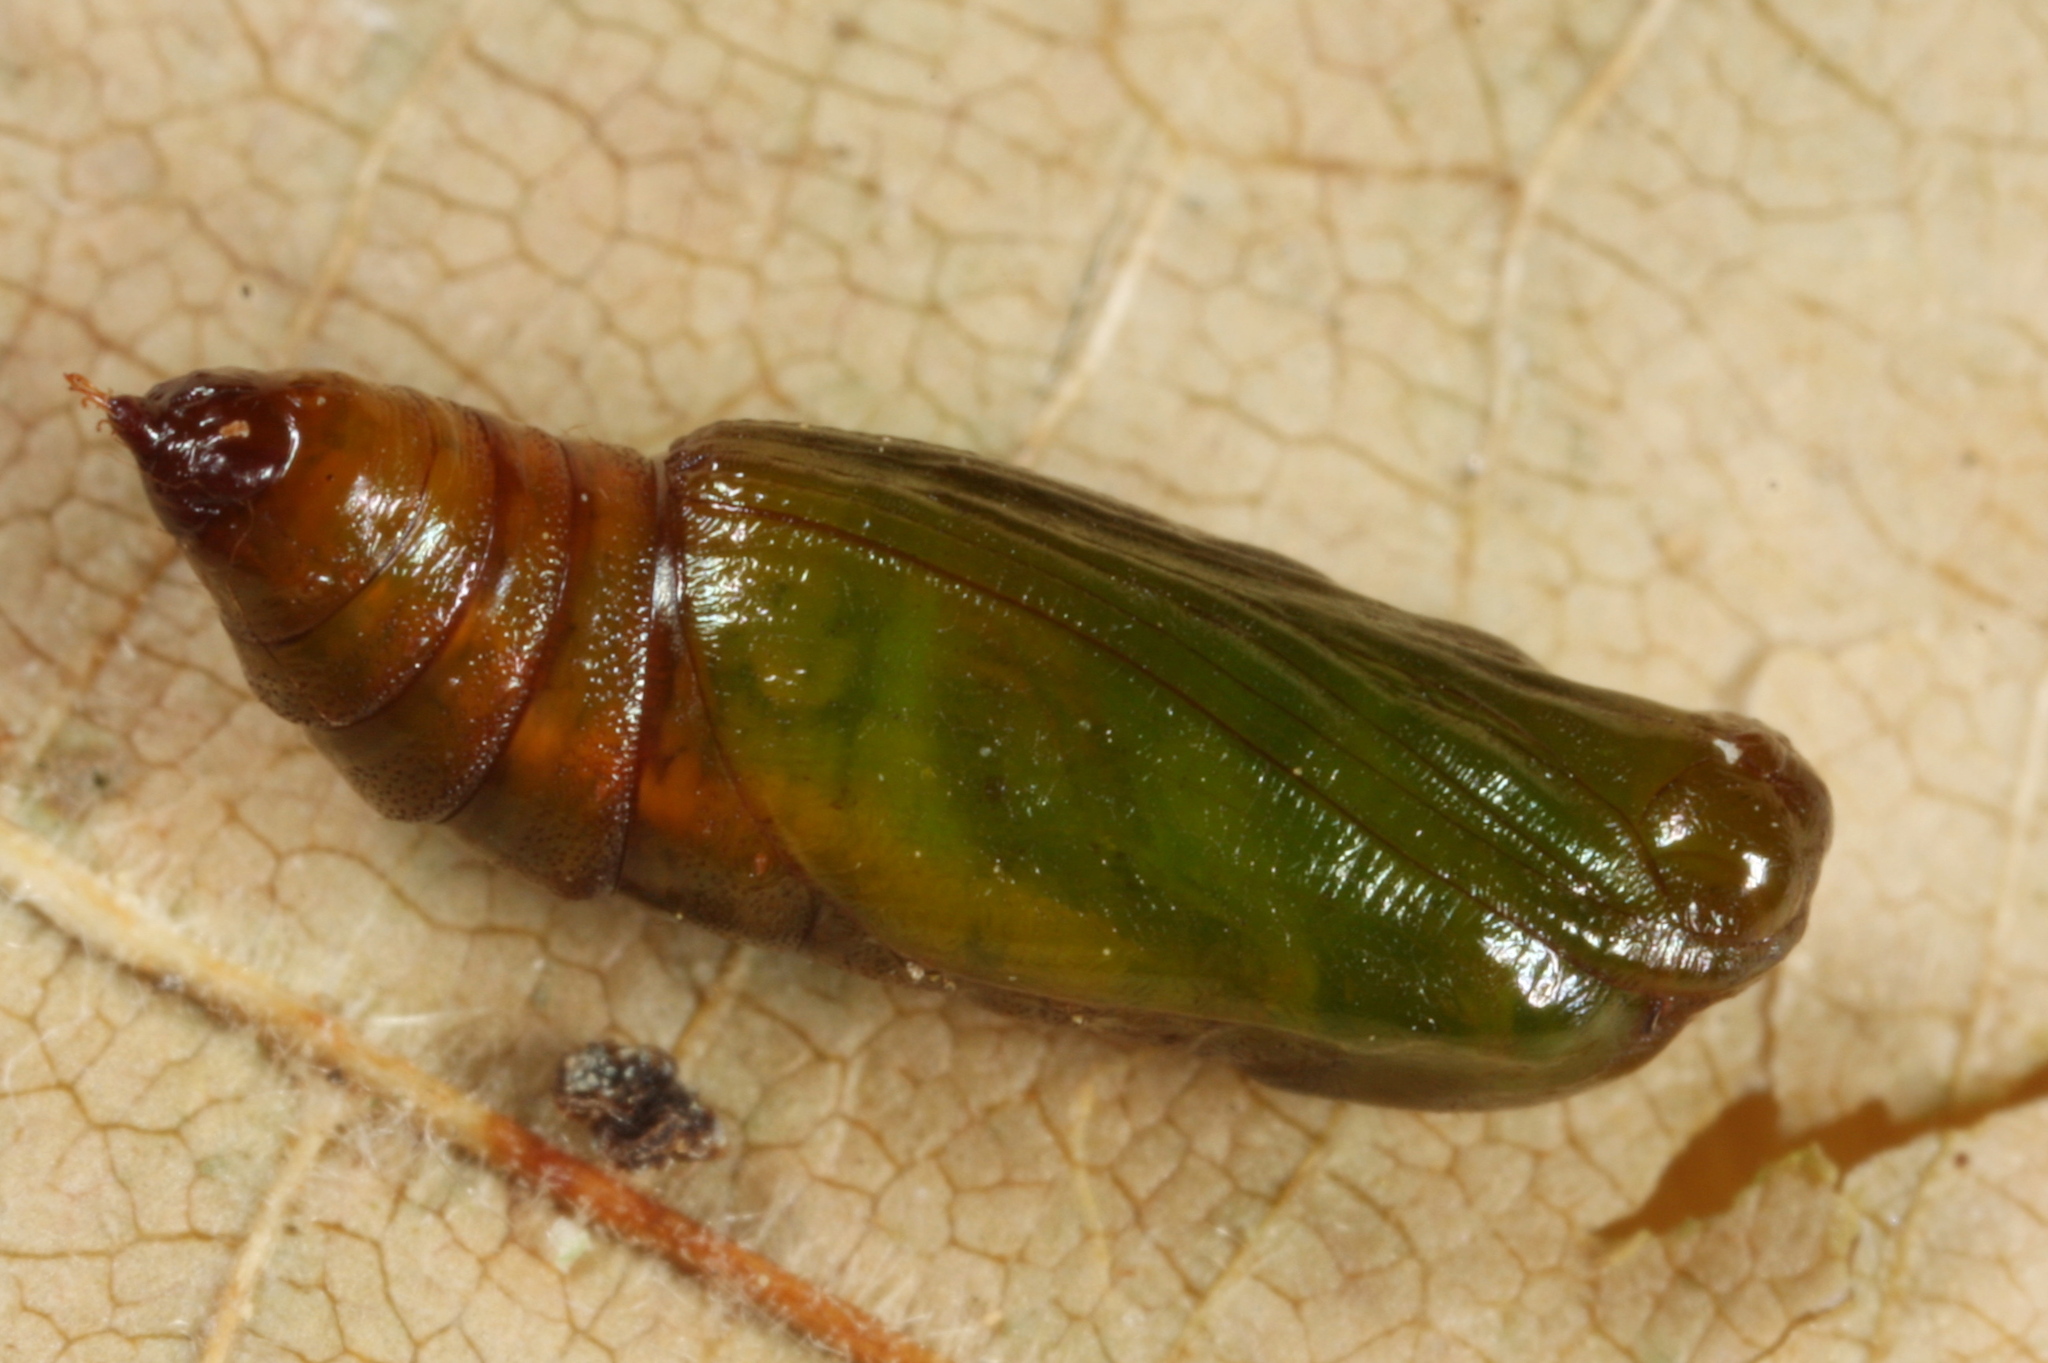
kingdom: Animalia
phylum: Arthropoda
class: Insecta
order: Lepidoptera
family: Geometridae
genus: Eupithecia
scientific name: Eupithecia pusillata
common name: Juniper pug
